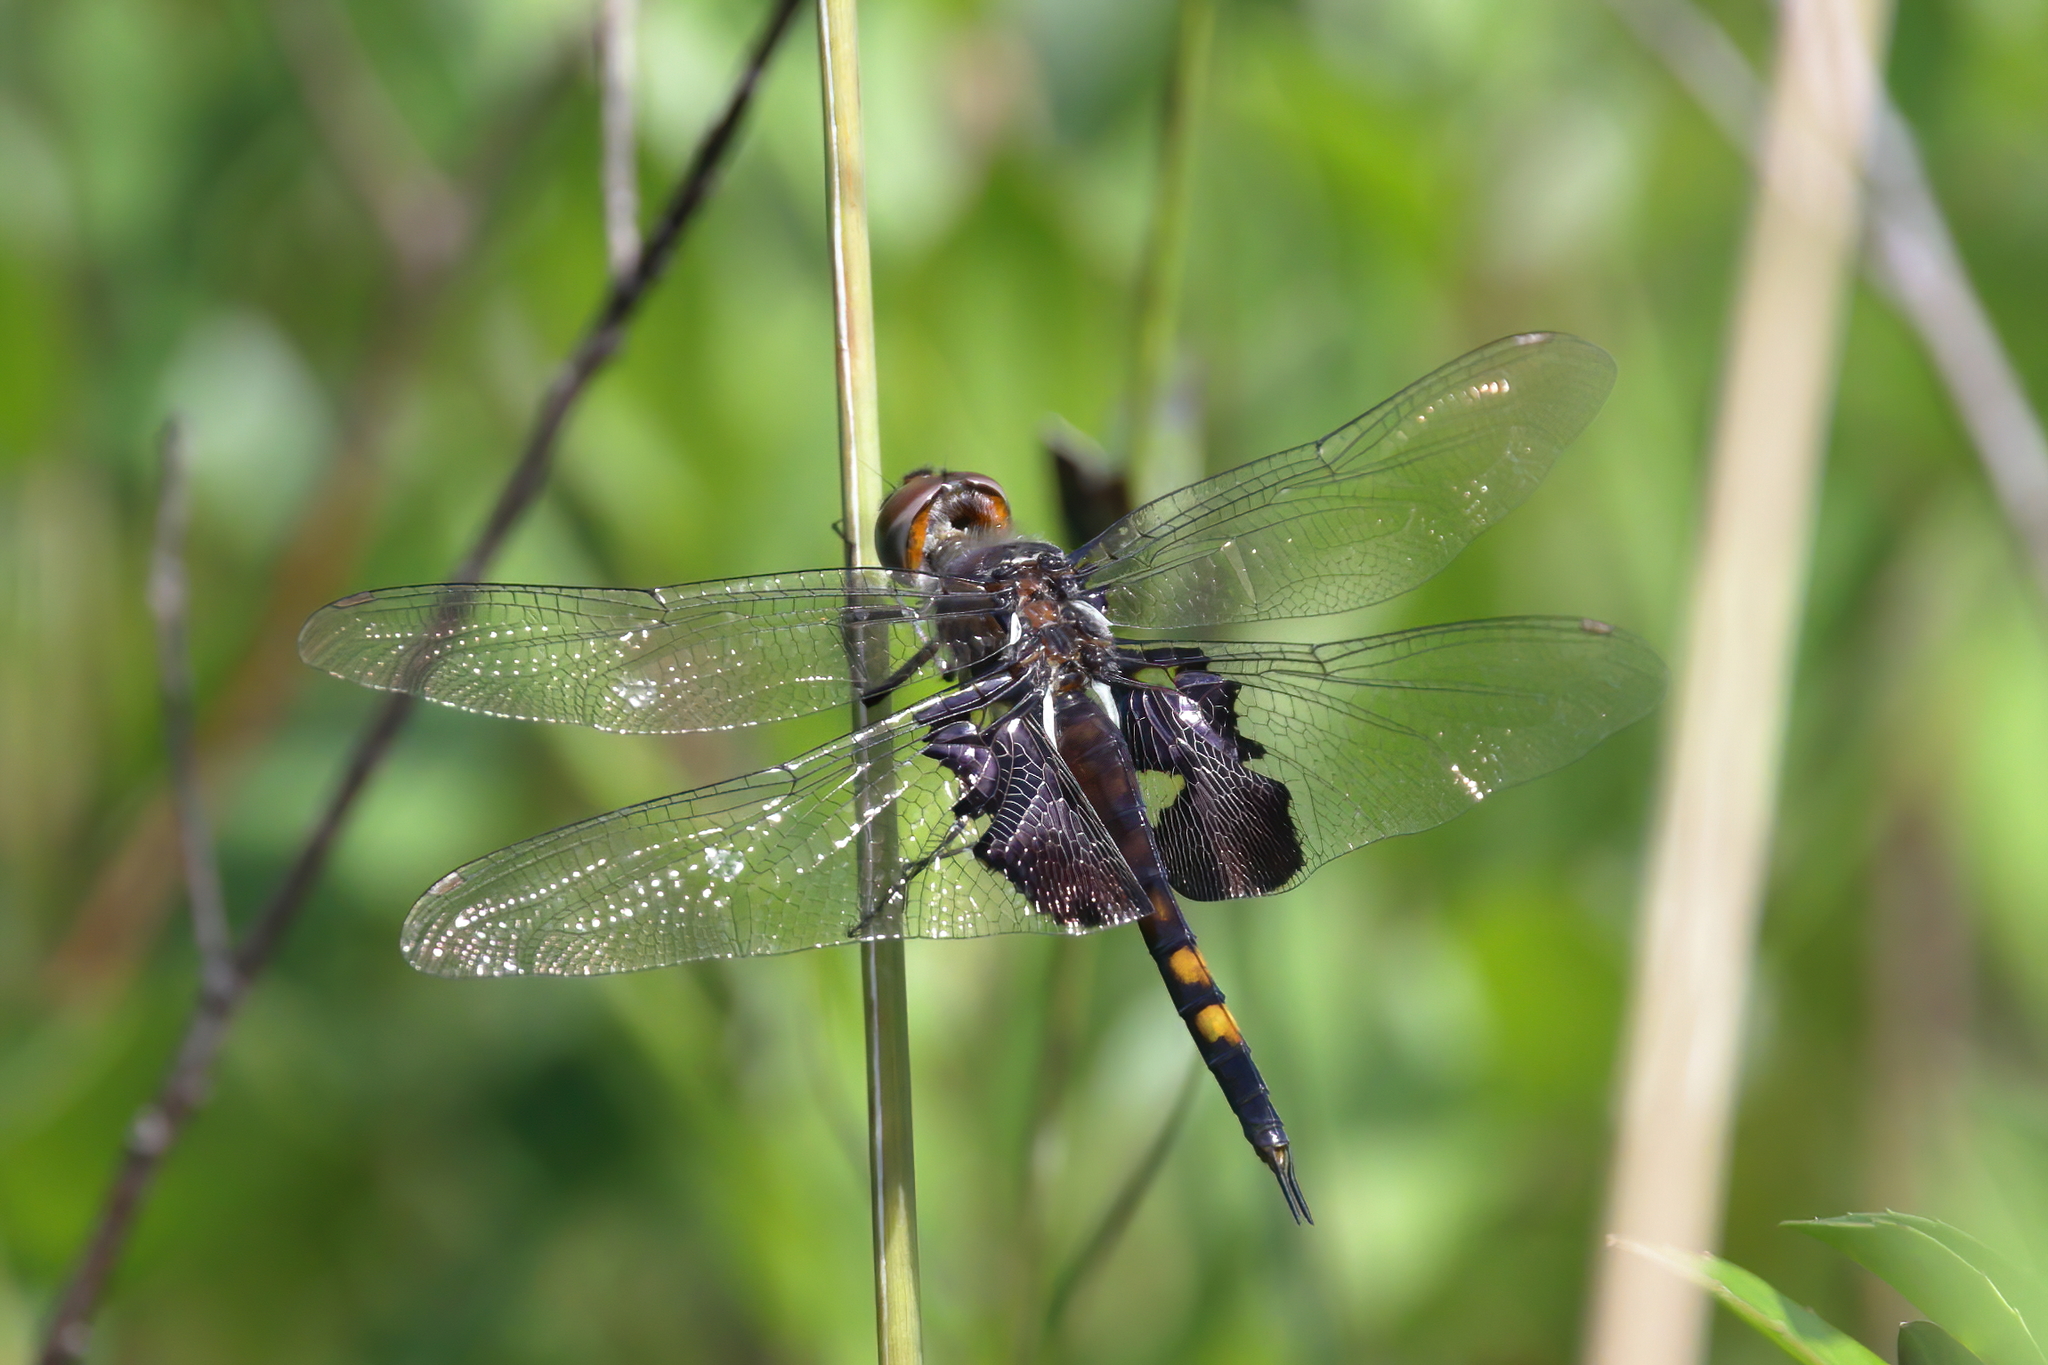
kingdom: Animalia
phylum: Arthropoda
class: Insecta
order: Odonata
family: Libellulidae
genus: Tramea
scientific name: Tramea lacerata
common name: Black saddlebags
